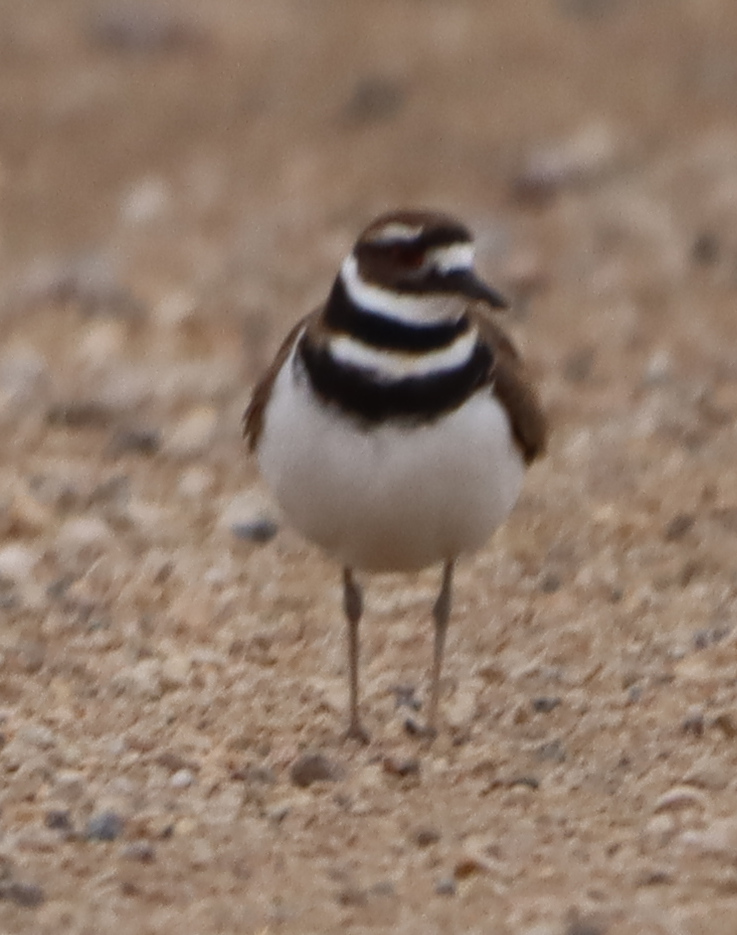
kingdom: Animalia
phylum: Chordata
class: Aves
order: Charadriiformes
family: Charadriidae
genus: Charadrius
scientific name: Charadrius vociferus
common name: Killdeer
